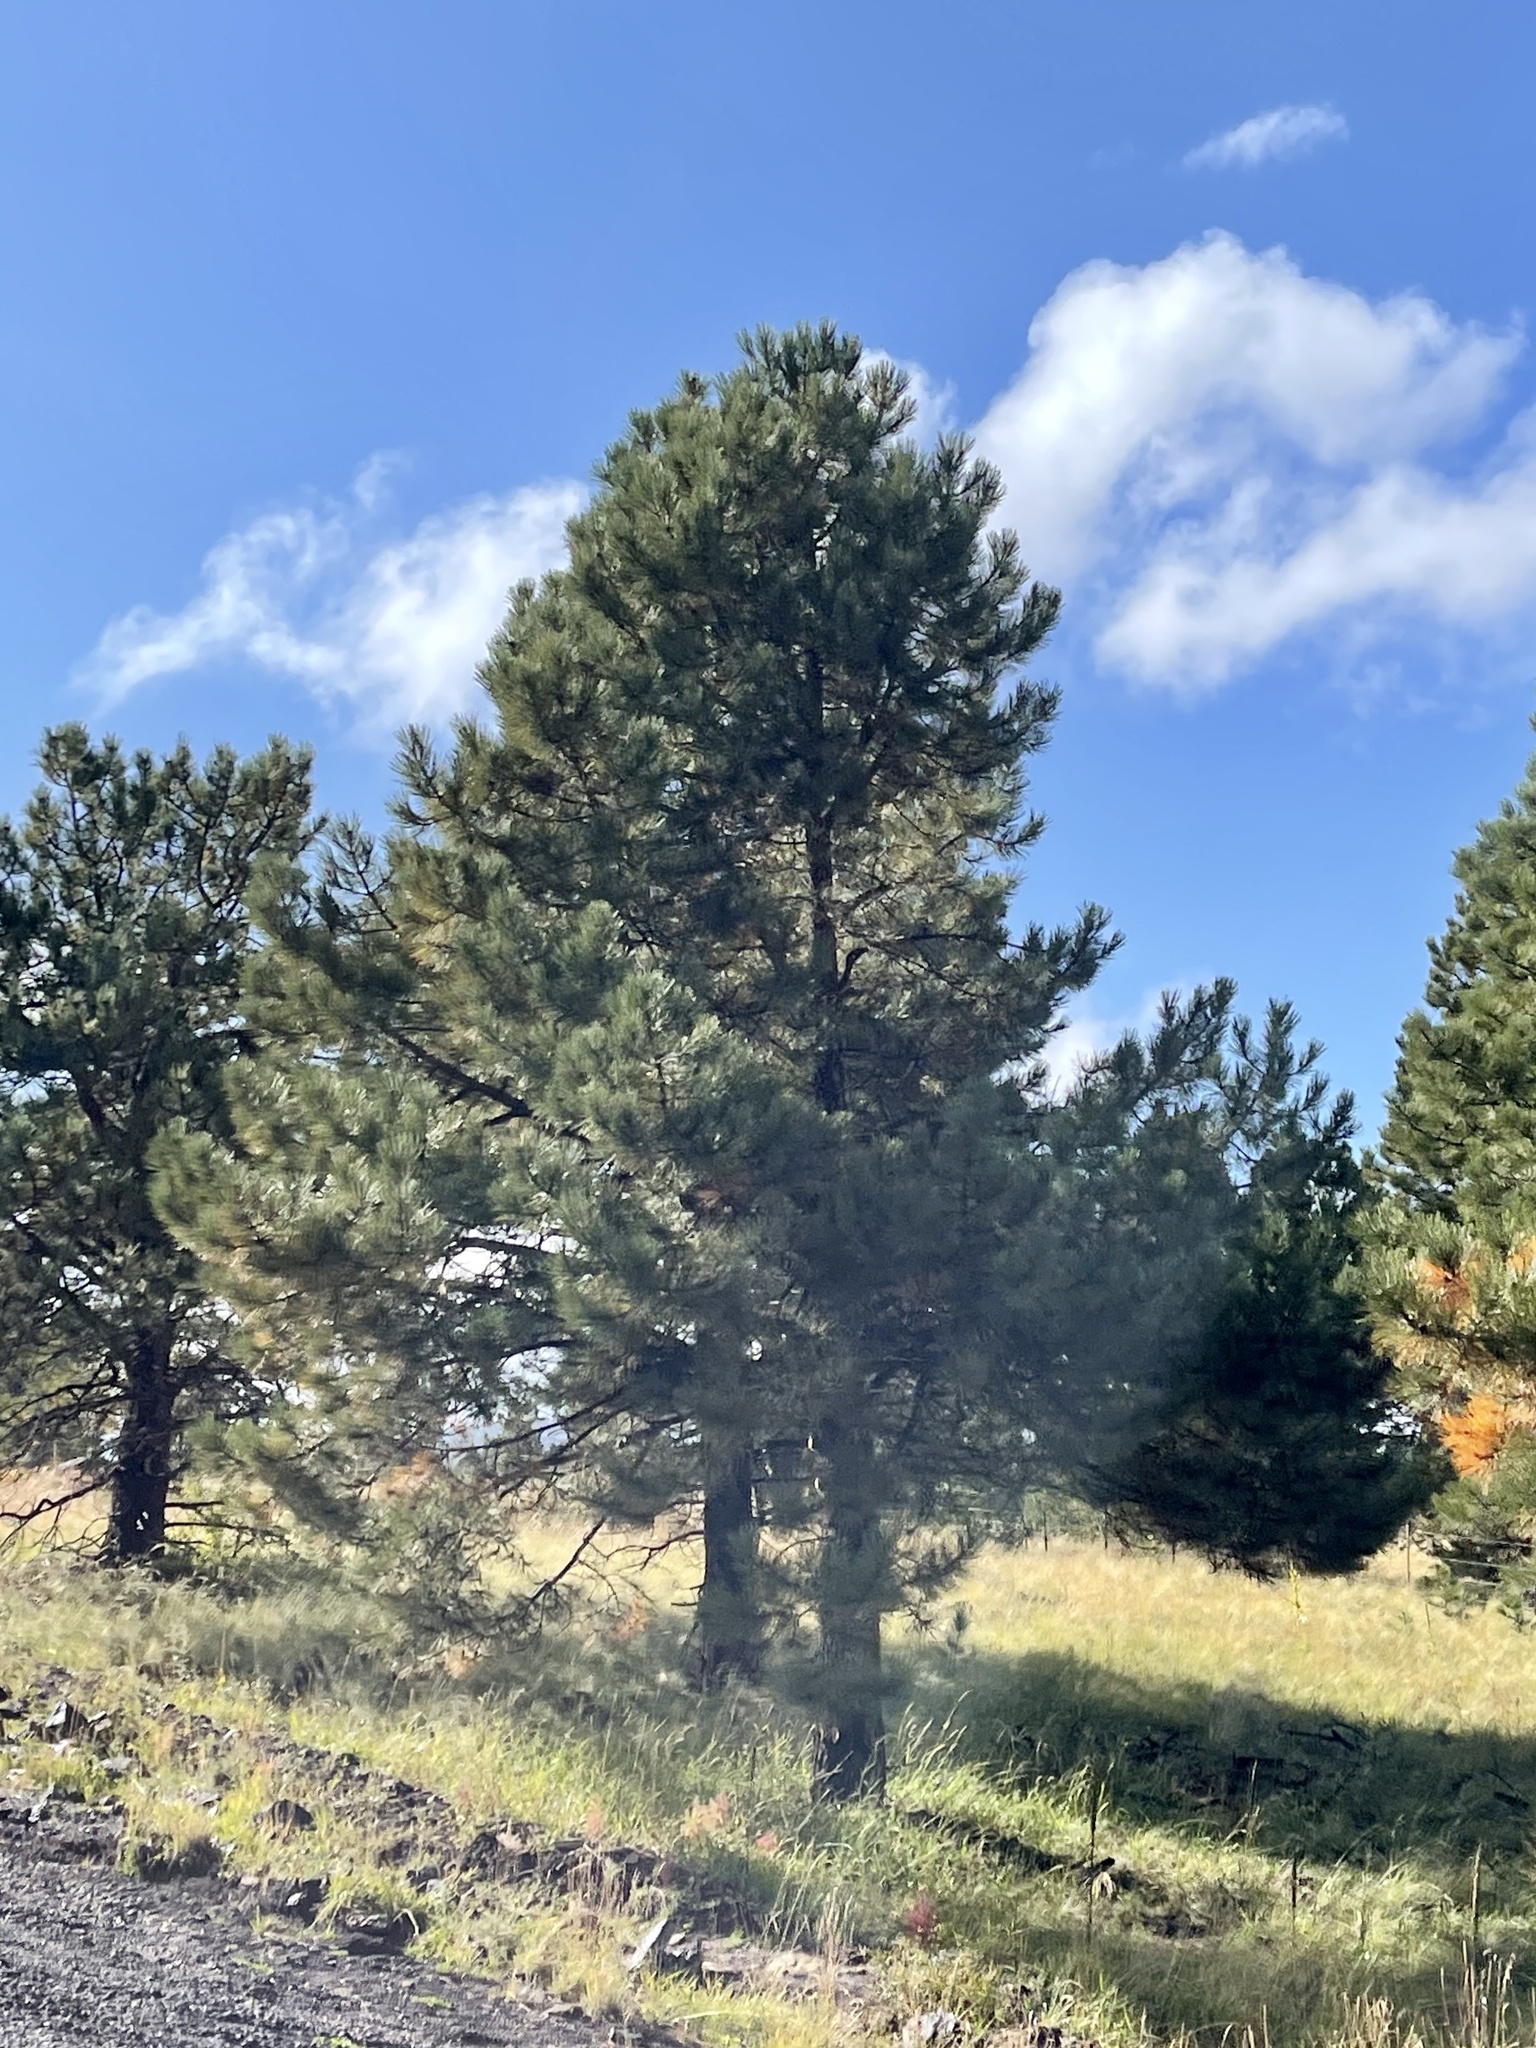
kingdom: Plantae
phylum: Tracheophyta
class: Pinopsida
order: Pinales
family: Pinaceae
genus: Pinus
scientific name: Pinus ponderosa
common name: Western yellow-pine
